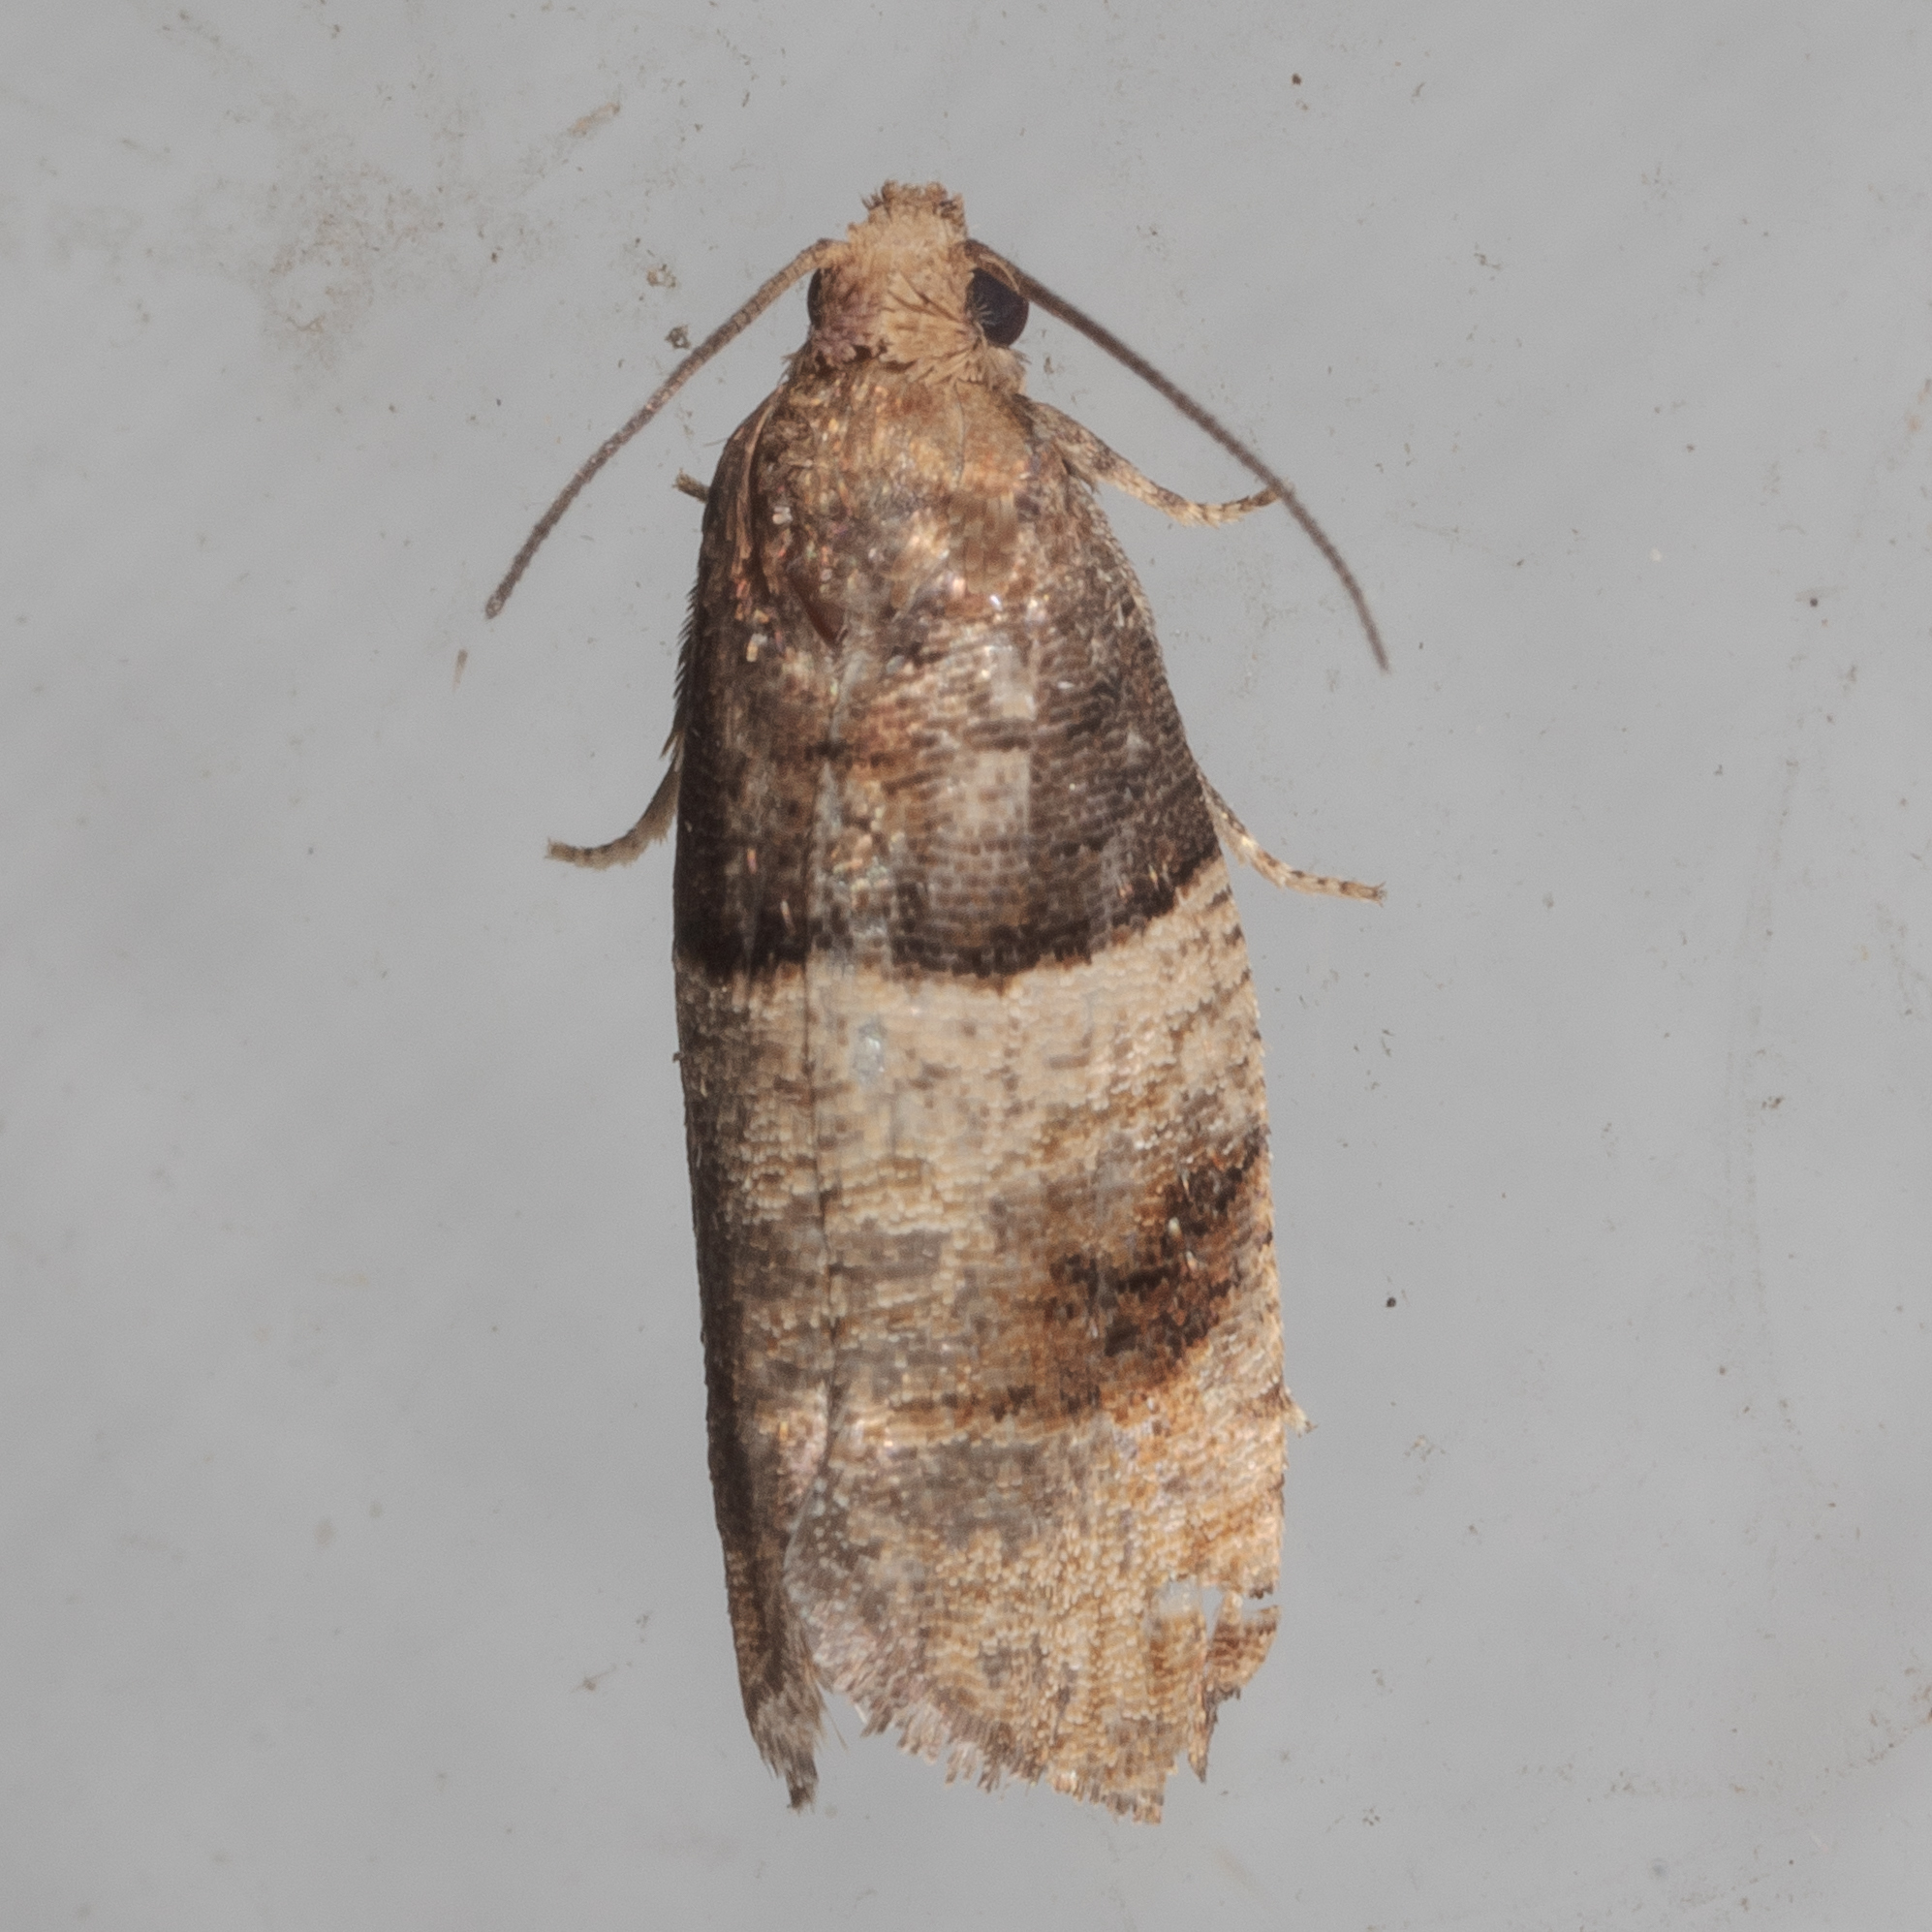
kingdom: Animalia
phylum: Arthropoda
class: Insecta
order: Lepidoptera
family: Tortricidae
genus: Larisa
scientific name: Larisa subsolana
